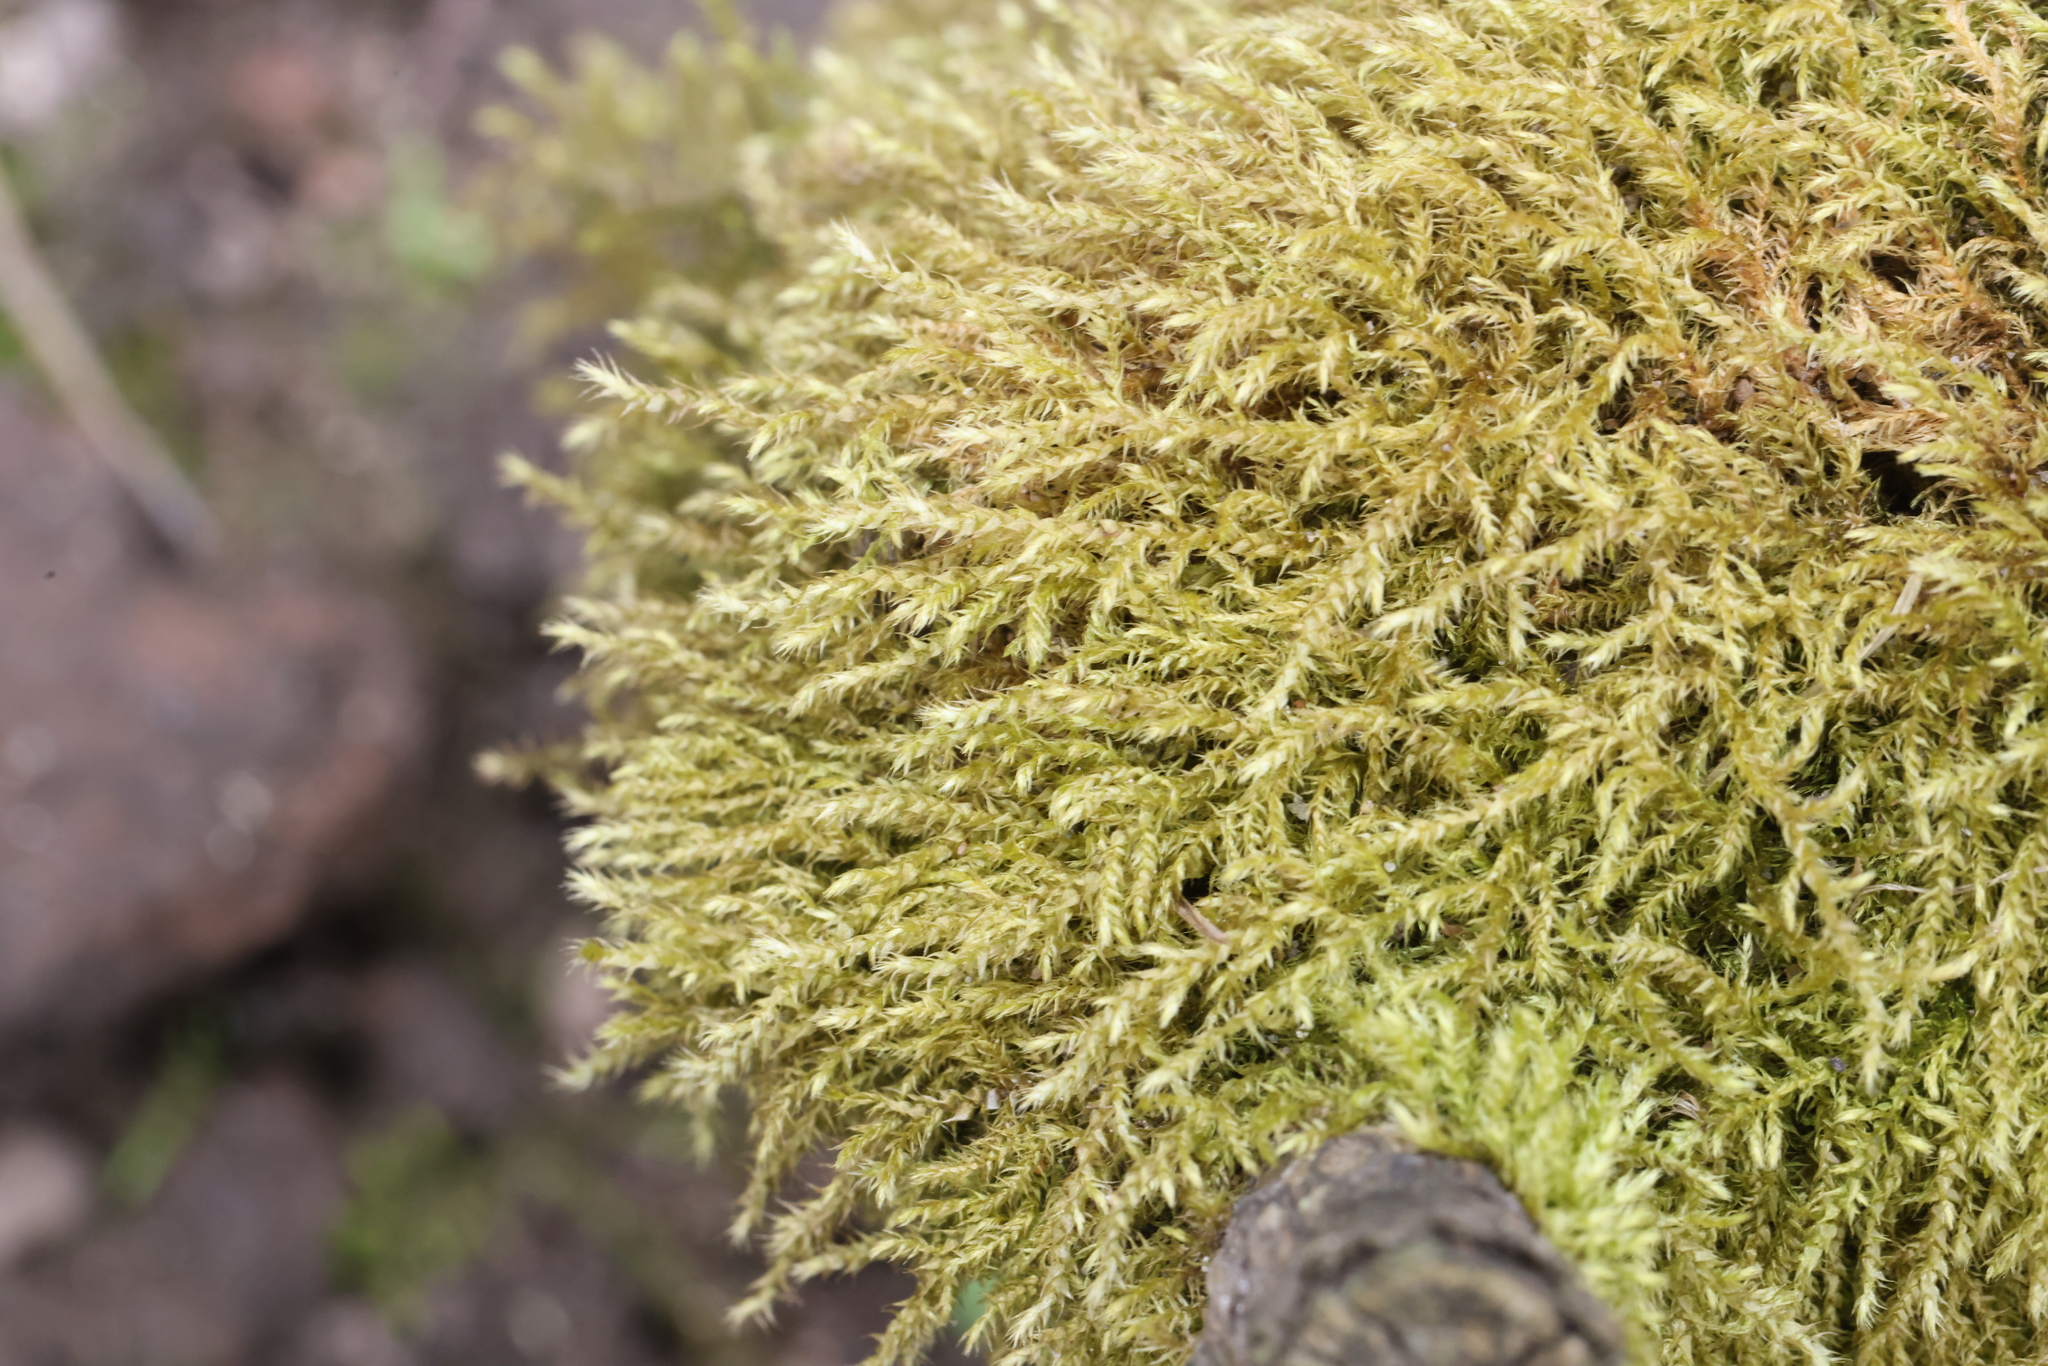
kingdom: Plantae
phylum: Bryophyta
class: Bryopsida
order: Hypnales
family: Hypnaceae
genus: Hypnum
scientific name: Hypnum cupressiforme
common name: Cypress-leaved plait-moss
